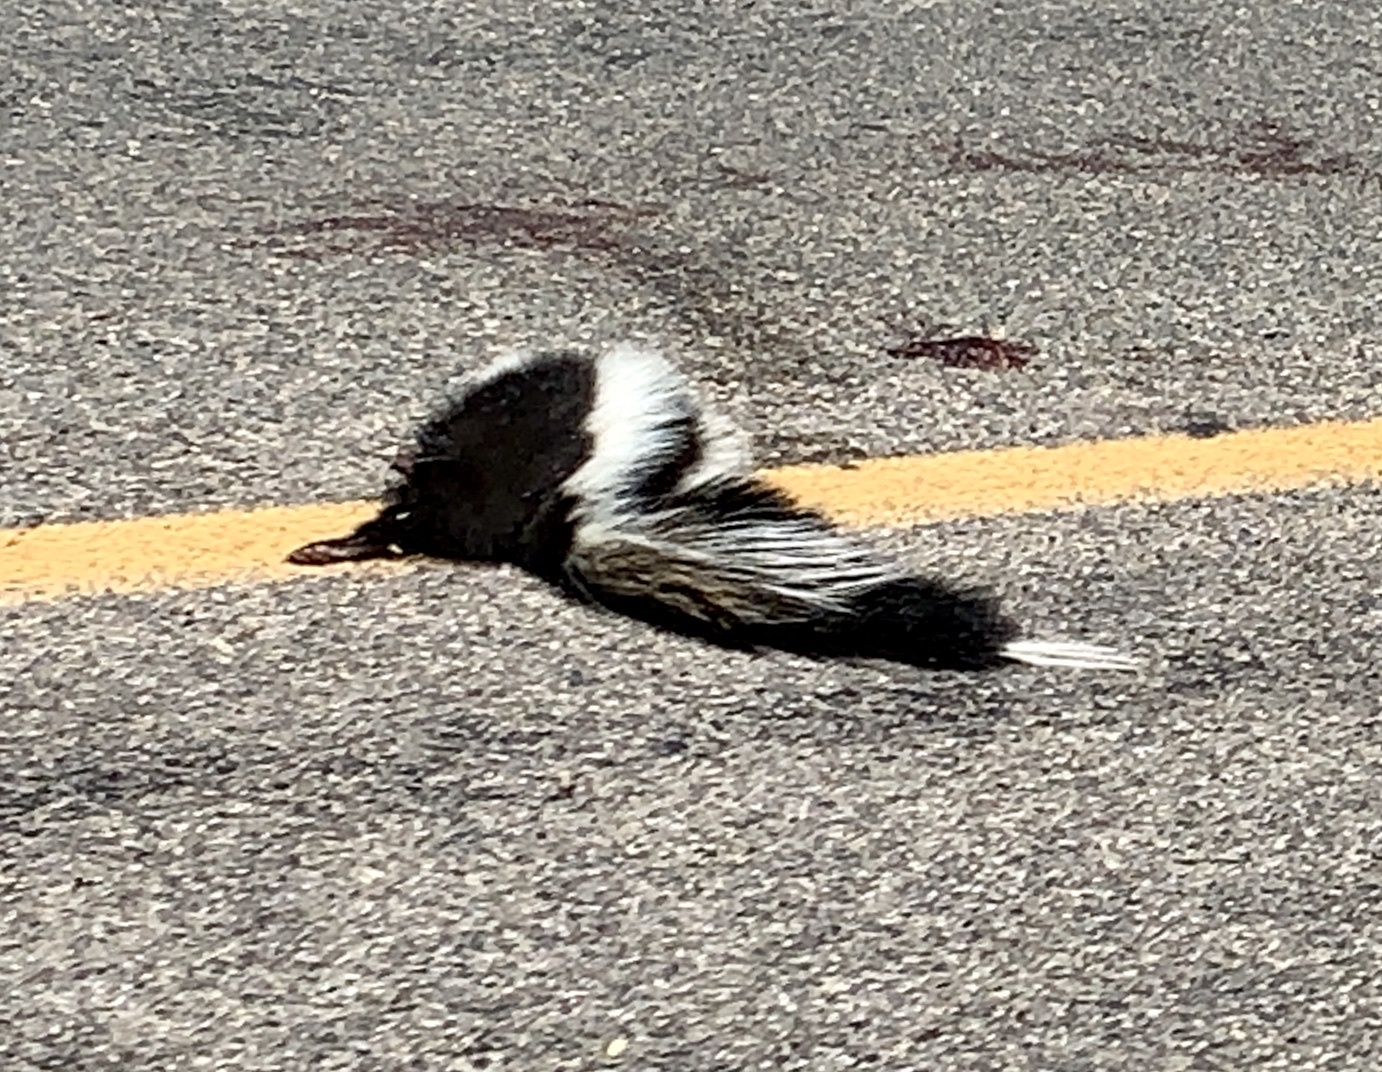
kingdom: Animalia
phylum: Chordata
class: Mammalia
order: Carnivora
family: Mephitidae
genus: Mephitis
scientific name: Mephitis mephitis
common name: Striped skunk
